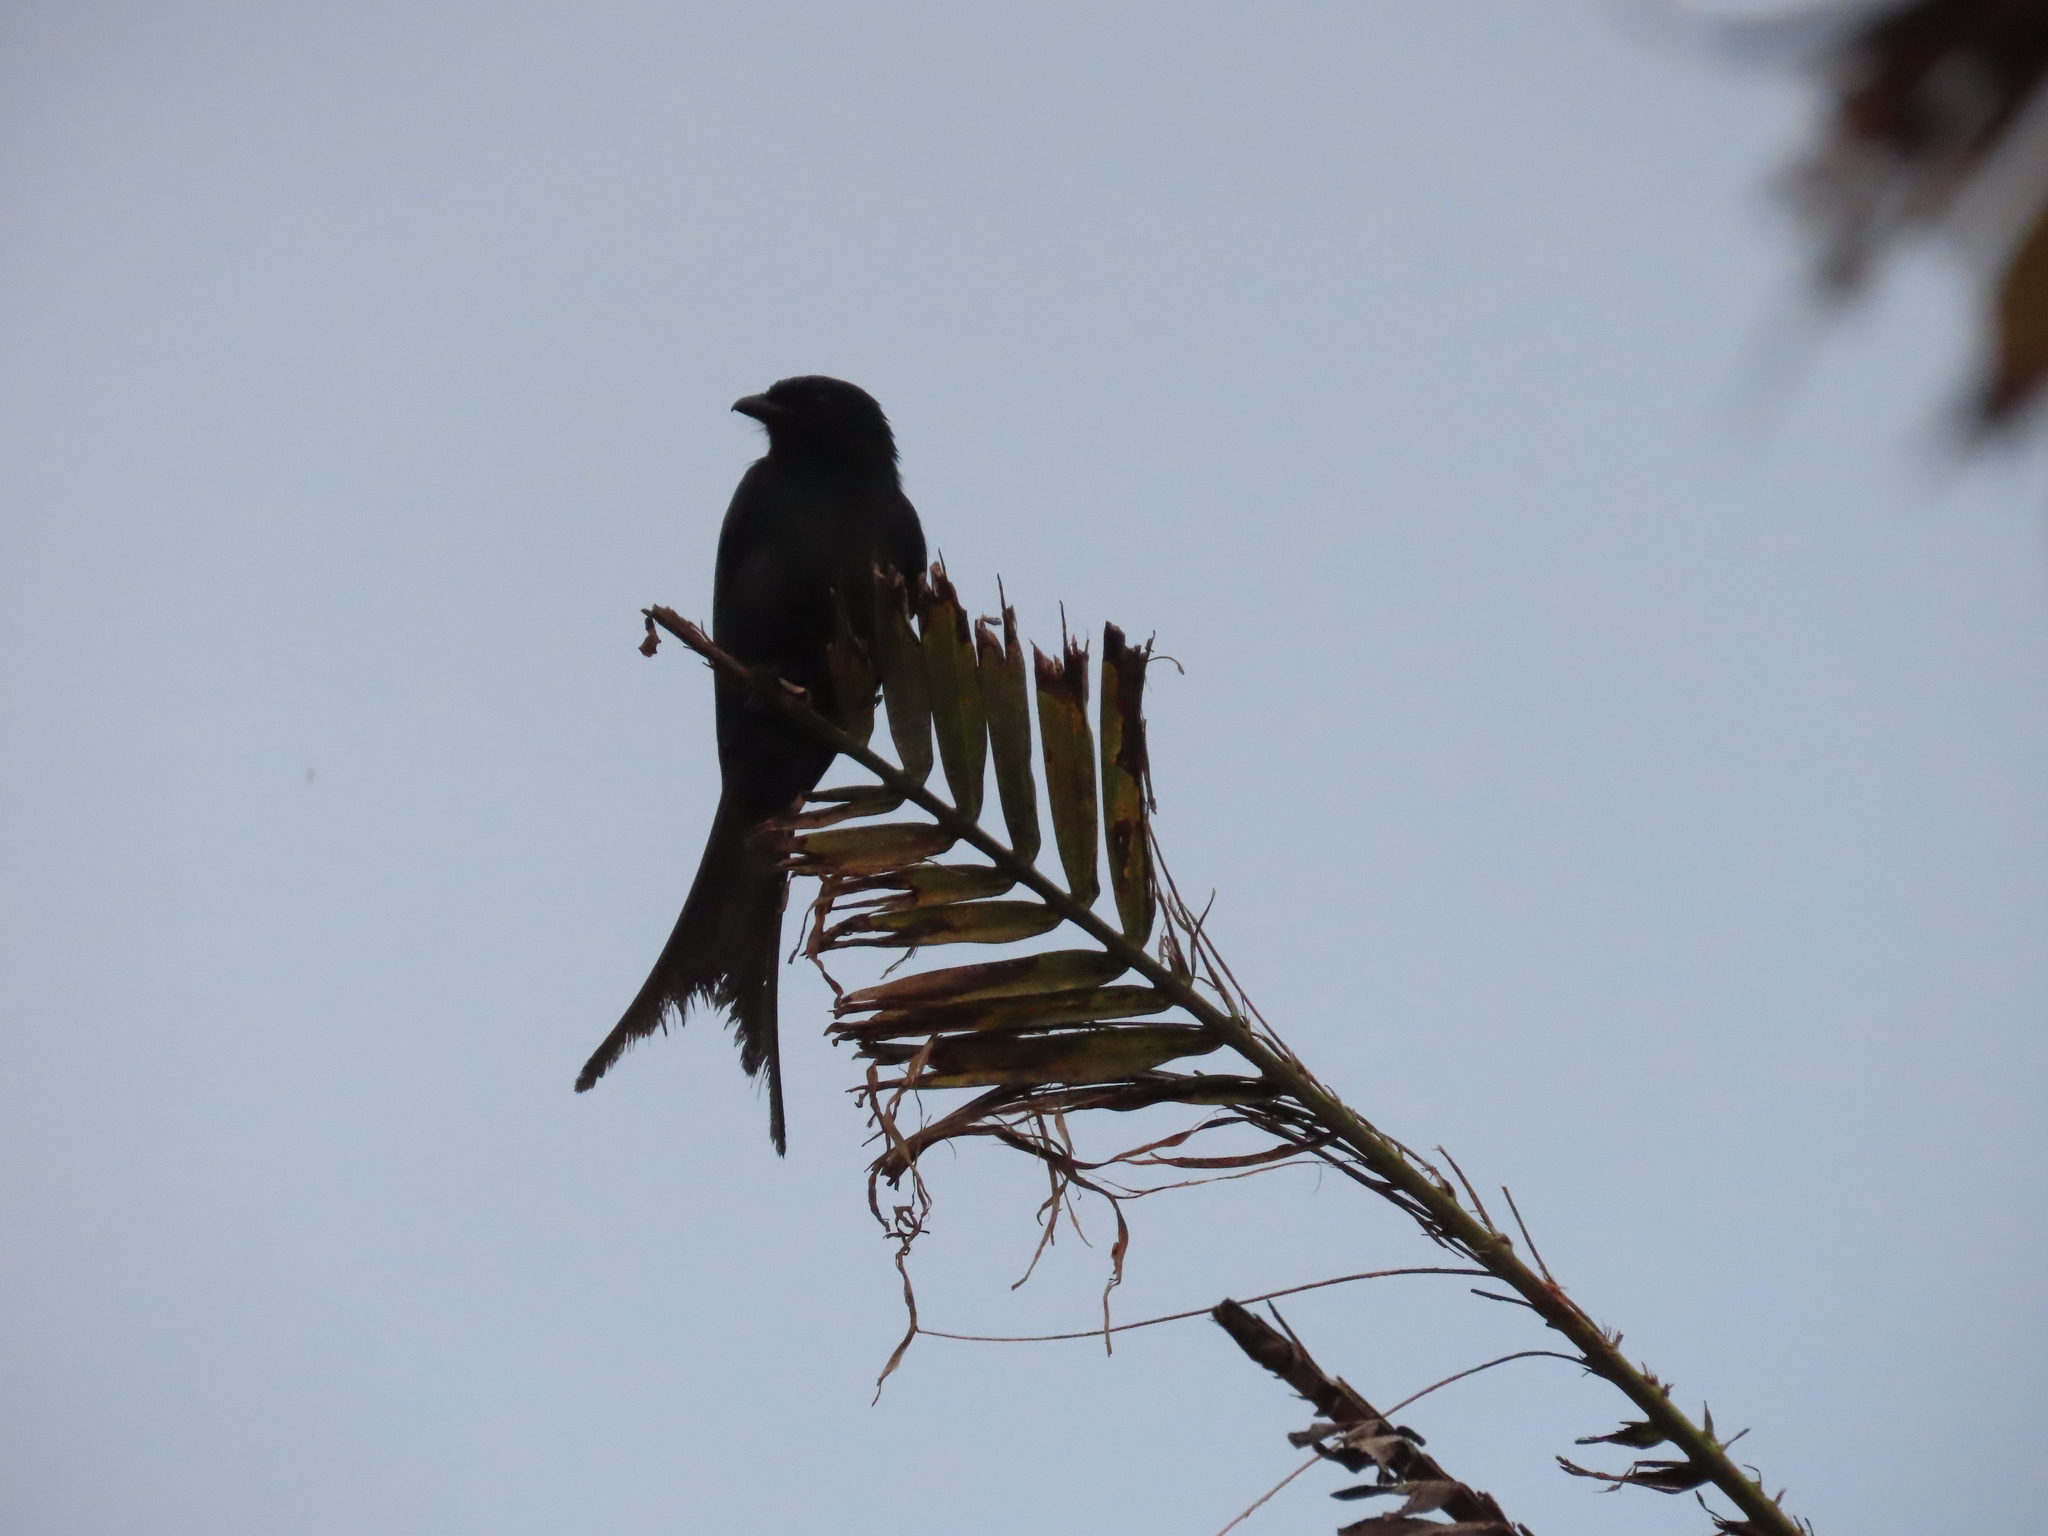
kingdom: Animalia
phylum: Chordata
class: Aves
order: Passeriformes
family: Dicruridae
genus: Dicrurus
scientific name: Dicrurus macrocercus
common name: Black drongo
